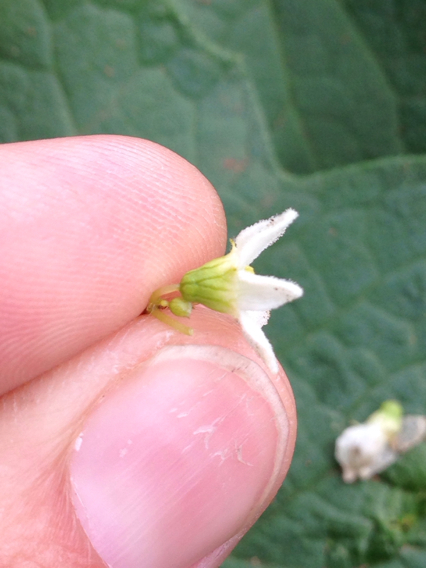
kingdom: Plantae
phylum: Tracheophyta
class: Magnoliopsida
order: Cucurbitales
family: Cucurbitaceae
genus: Marah
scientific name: Marah oregana
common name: Coastal manroot
